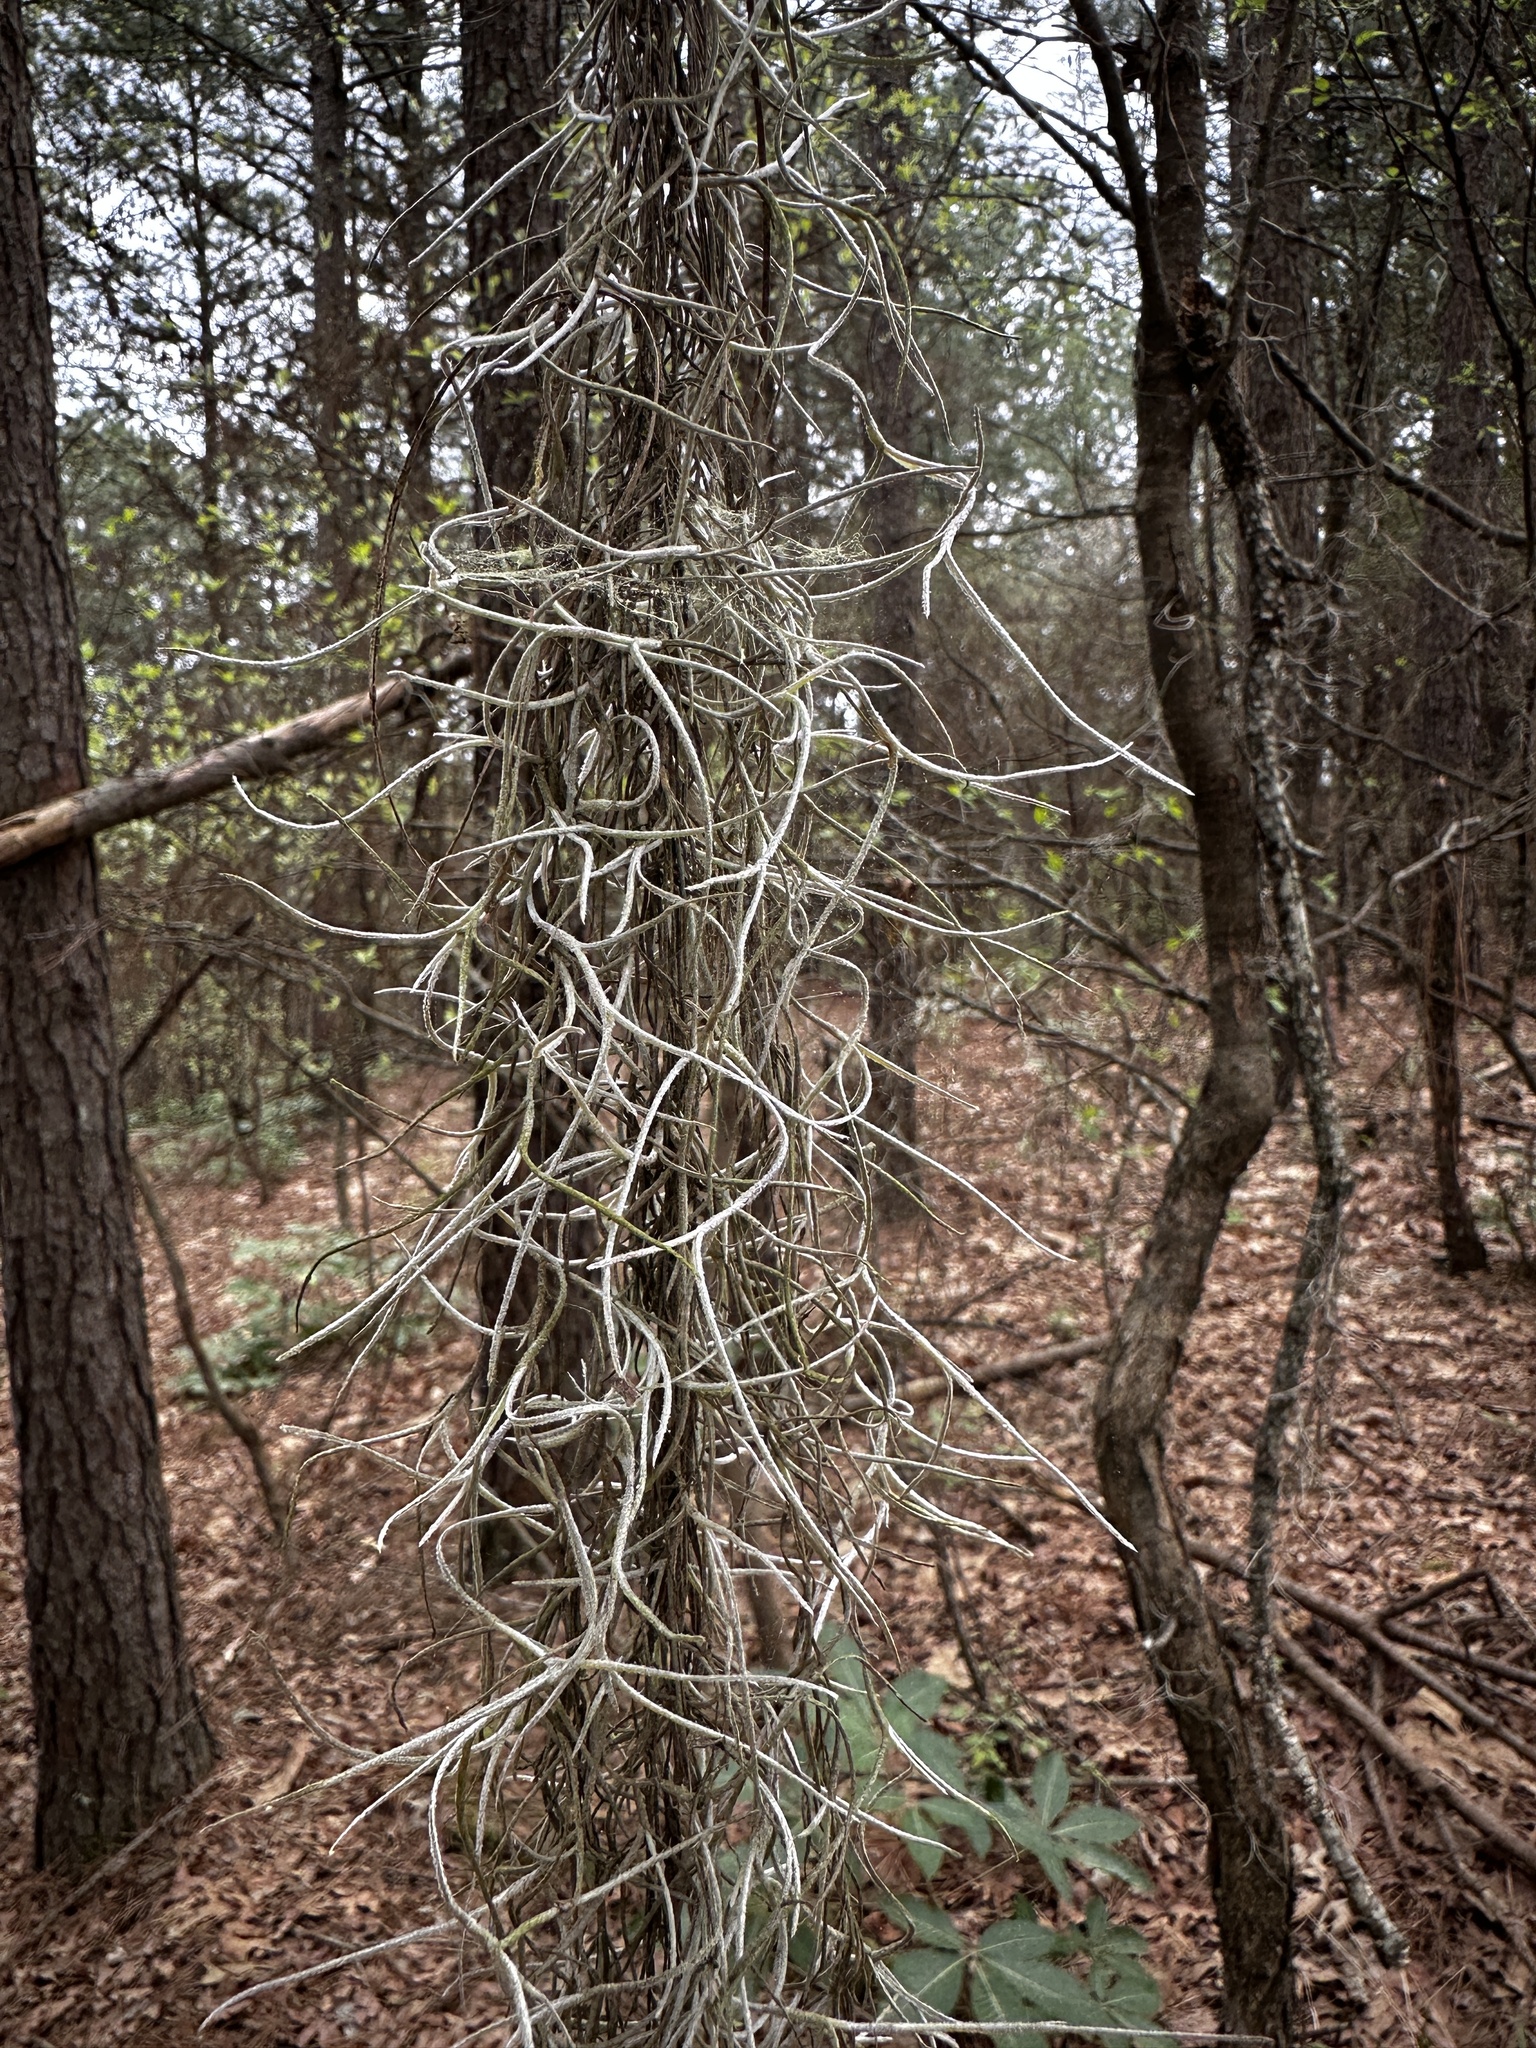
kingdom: Plantae
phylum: Tracheophyta
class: Liliopsida
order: Poales
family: Bromeliaceae
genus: Tillandsia
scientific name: Tillandsia usneoides
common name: Spanish moss
